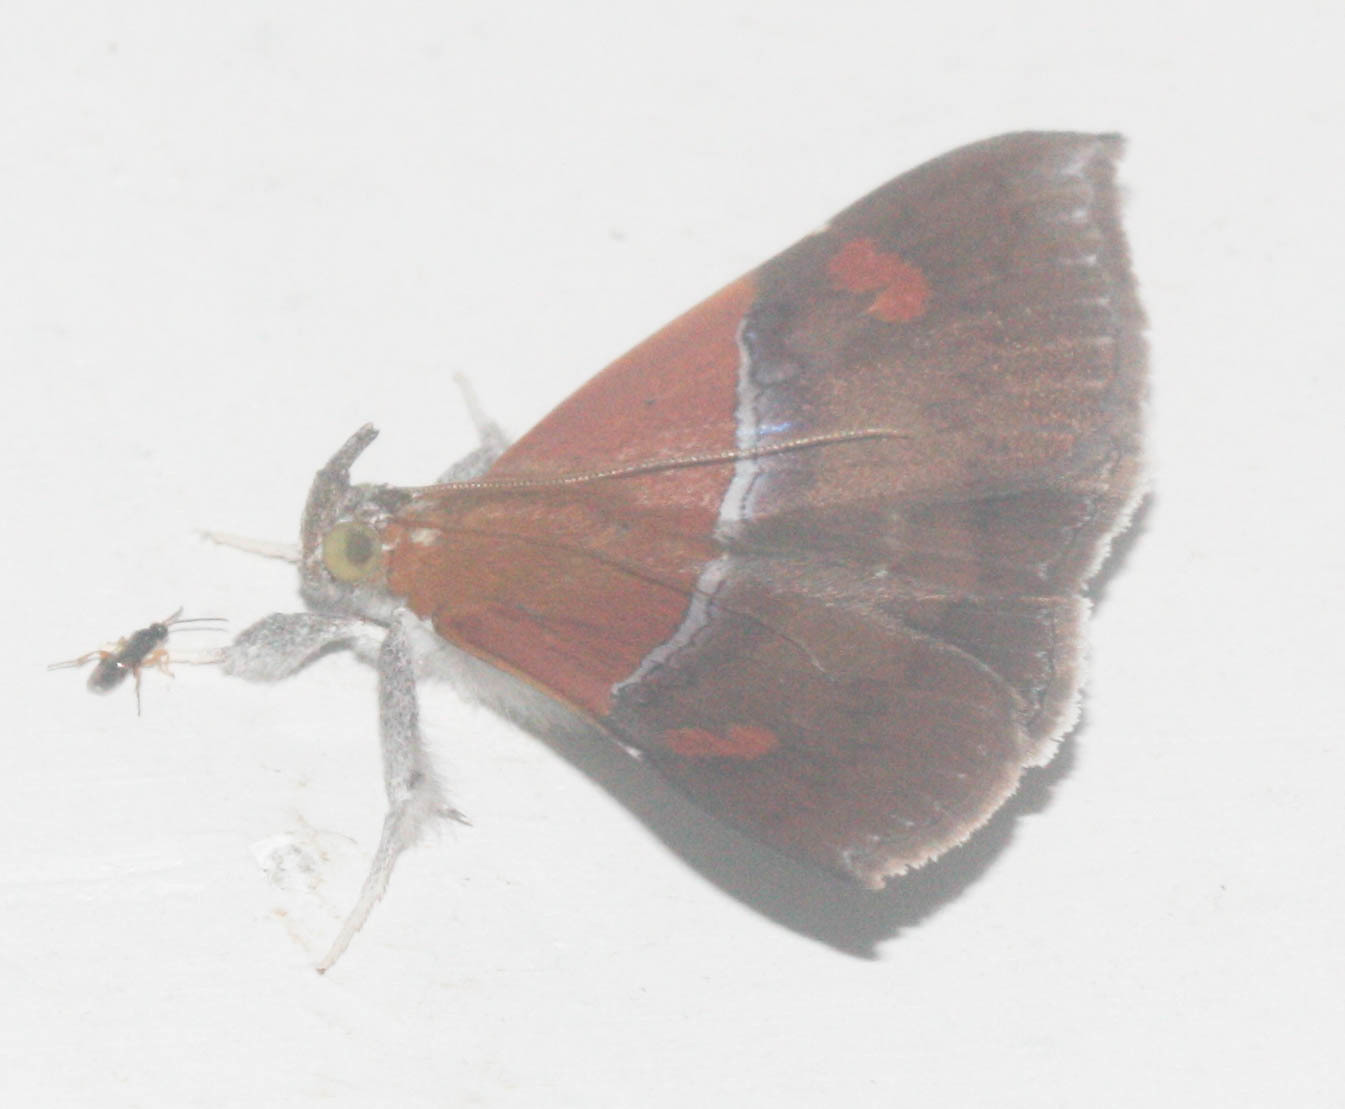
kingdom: Animalia
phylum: Arthropoda
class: Insecta
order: Lepidoptera
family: Erebidae
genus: Sympis
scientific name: Sympis rufibasis
